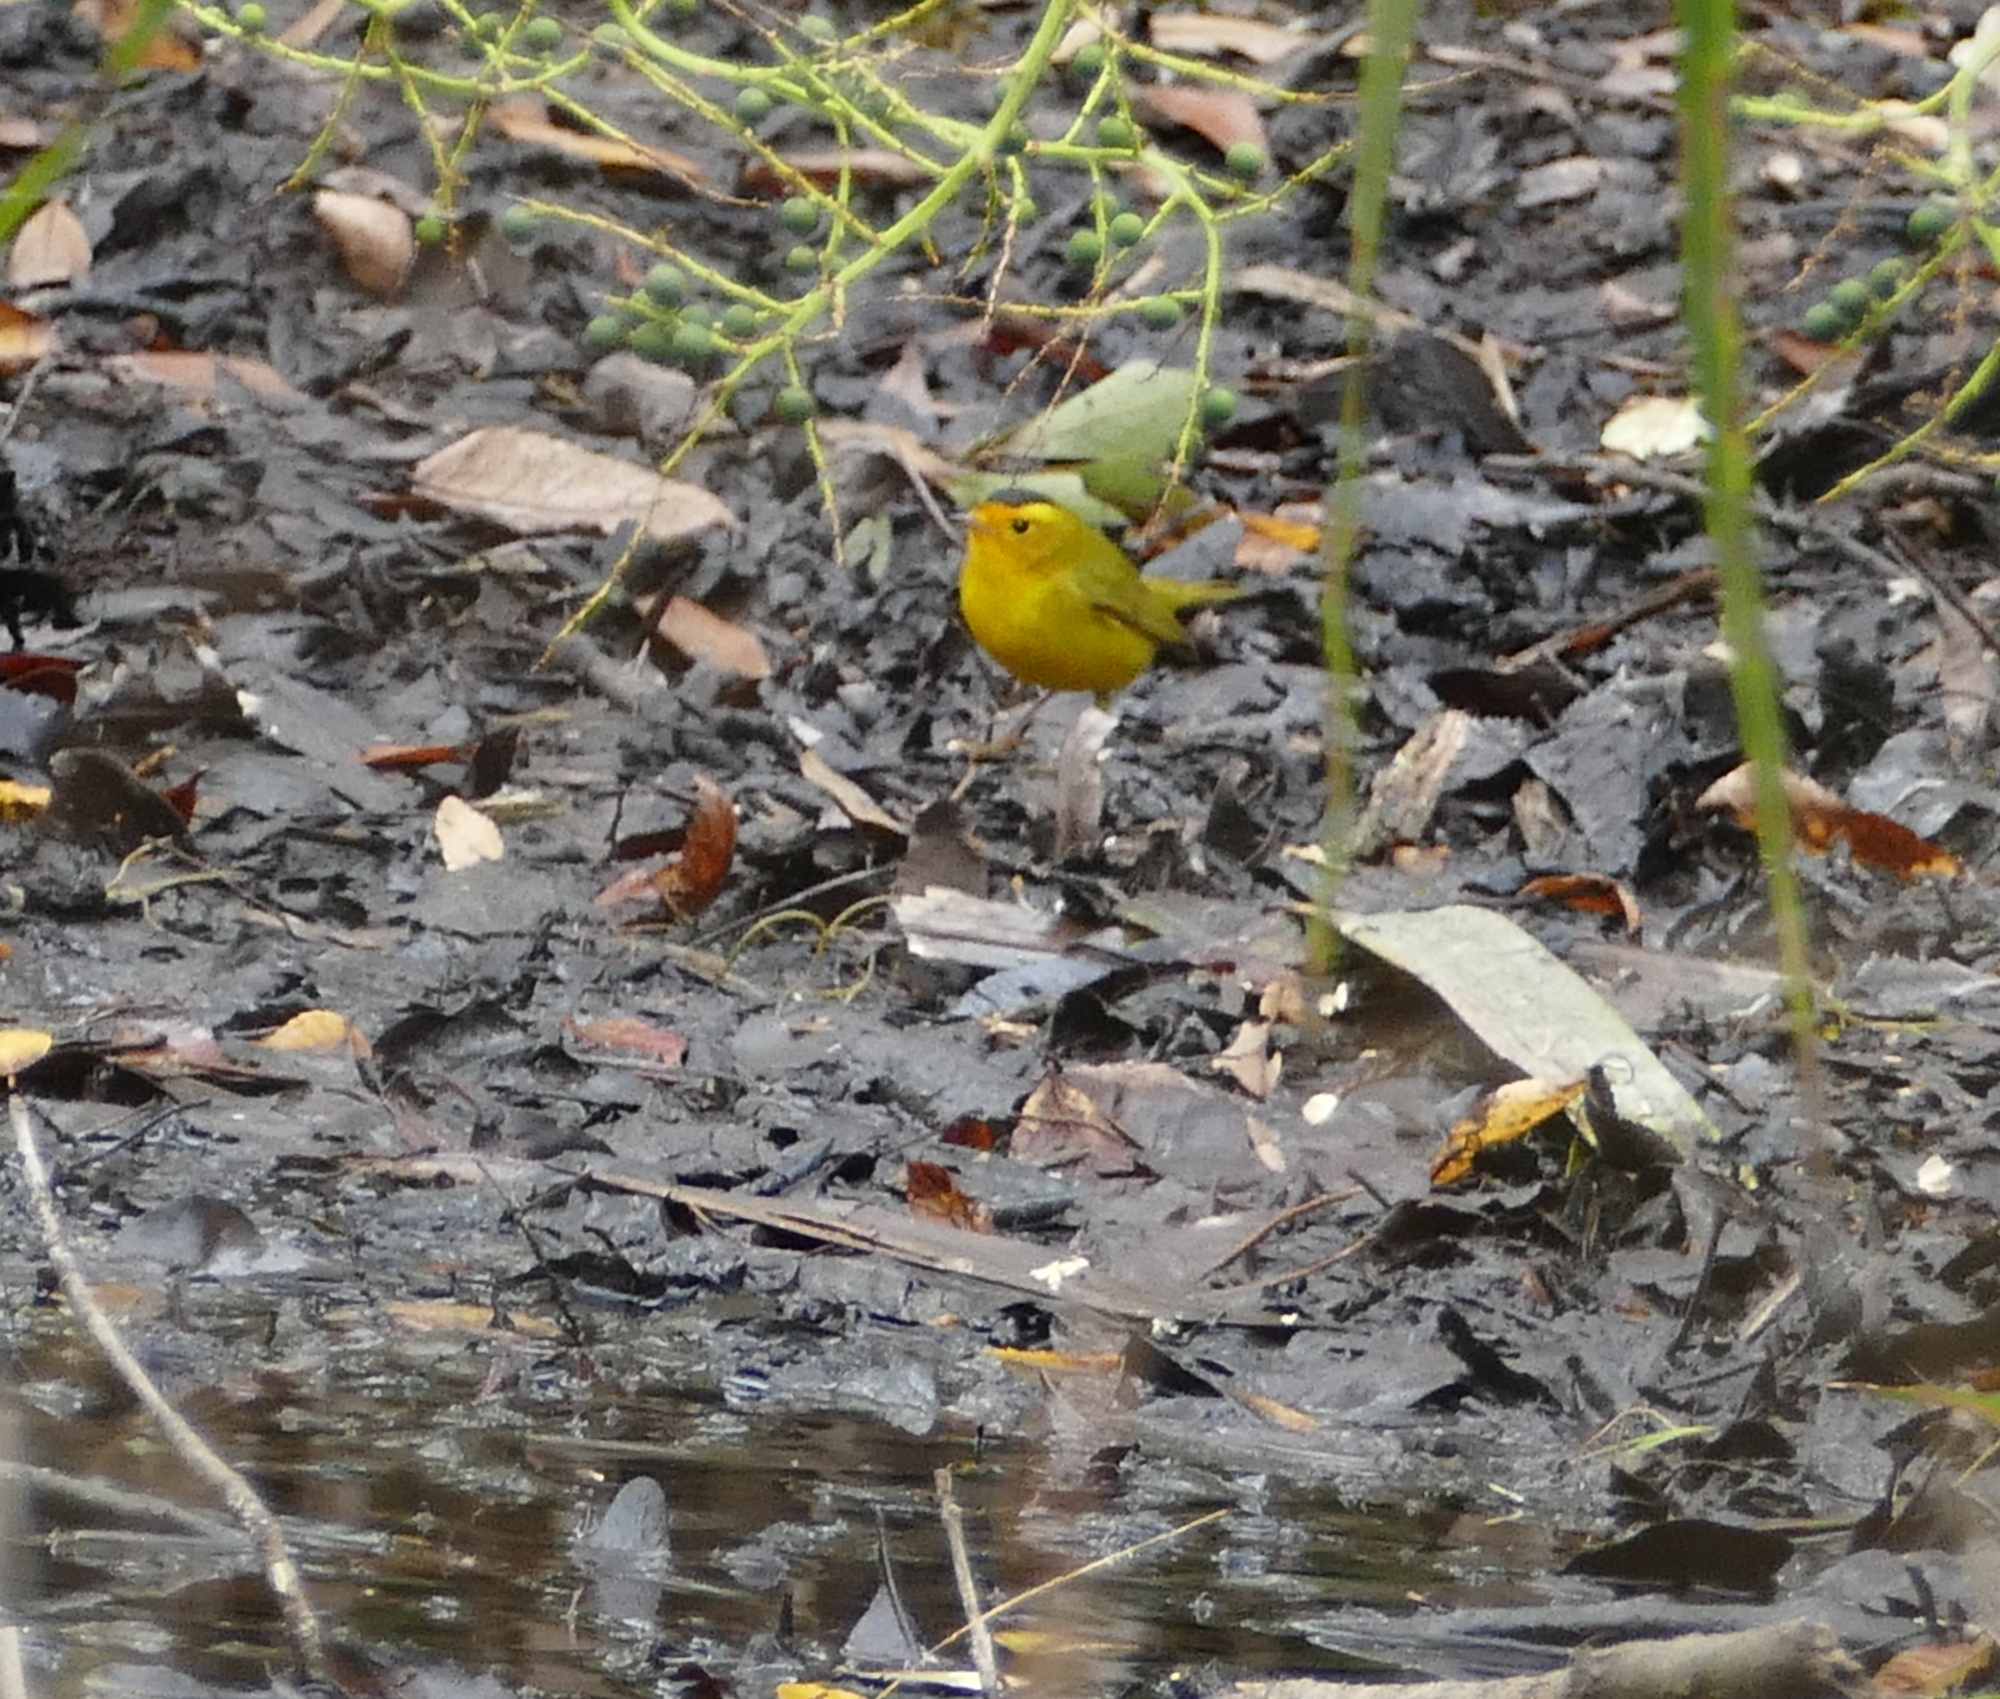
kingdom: Animalia
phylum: Chordata
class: Aves
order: Passeriformes
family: Parulidae
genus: Cardellina
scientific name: Cardellina pusilla
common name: Wilson's warbler
